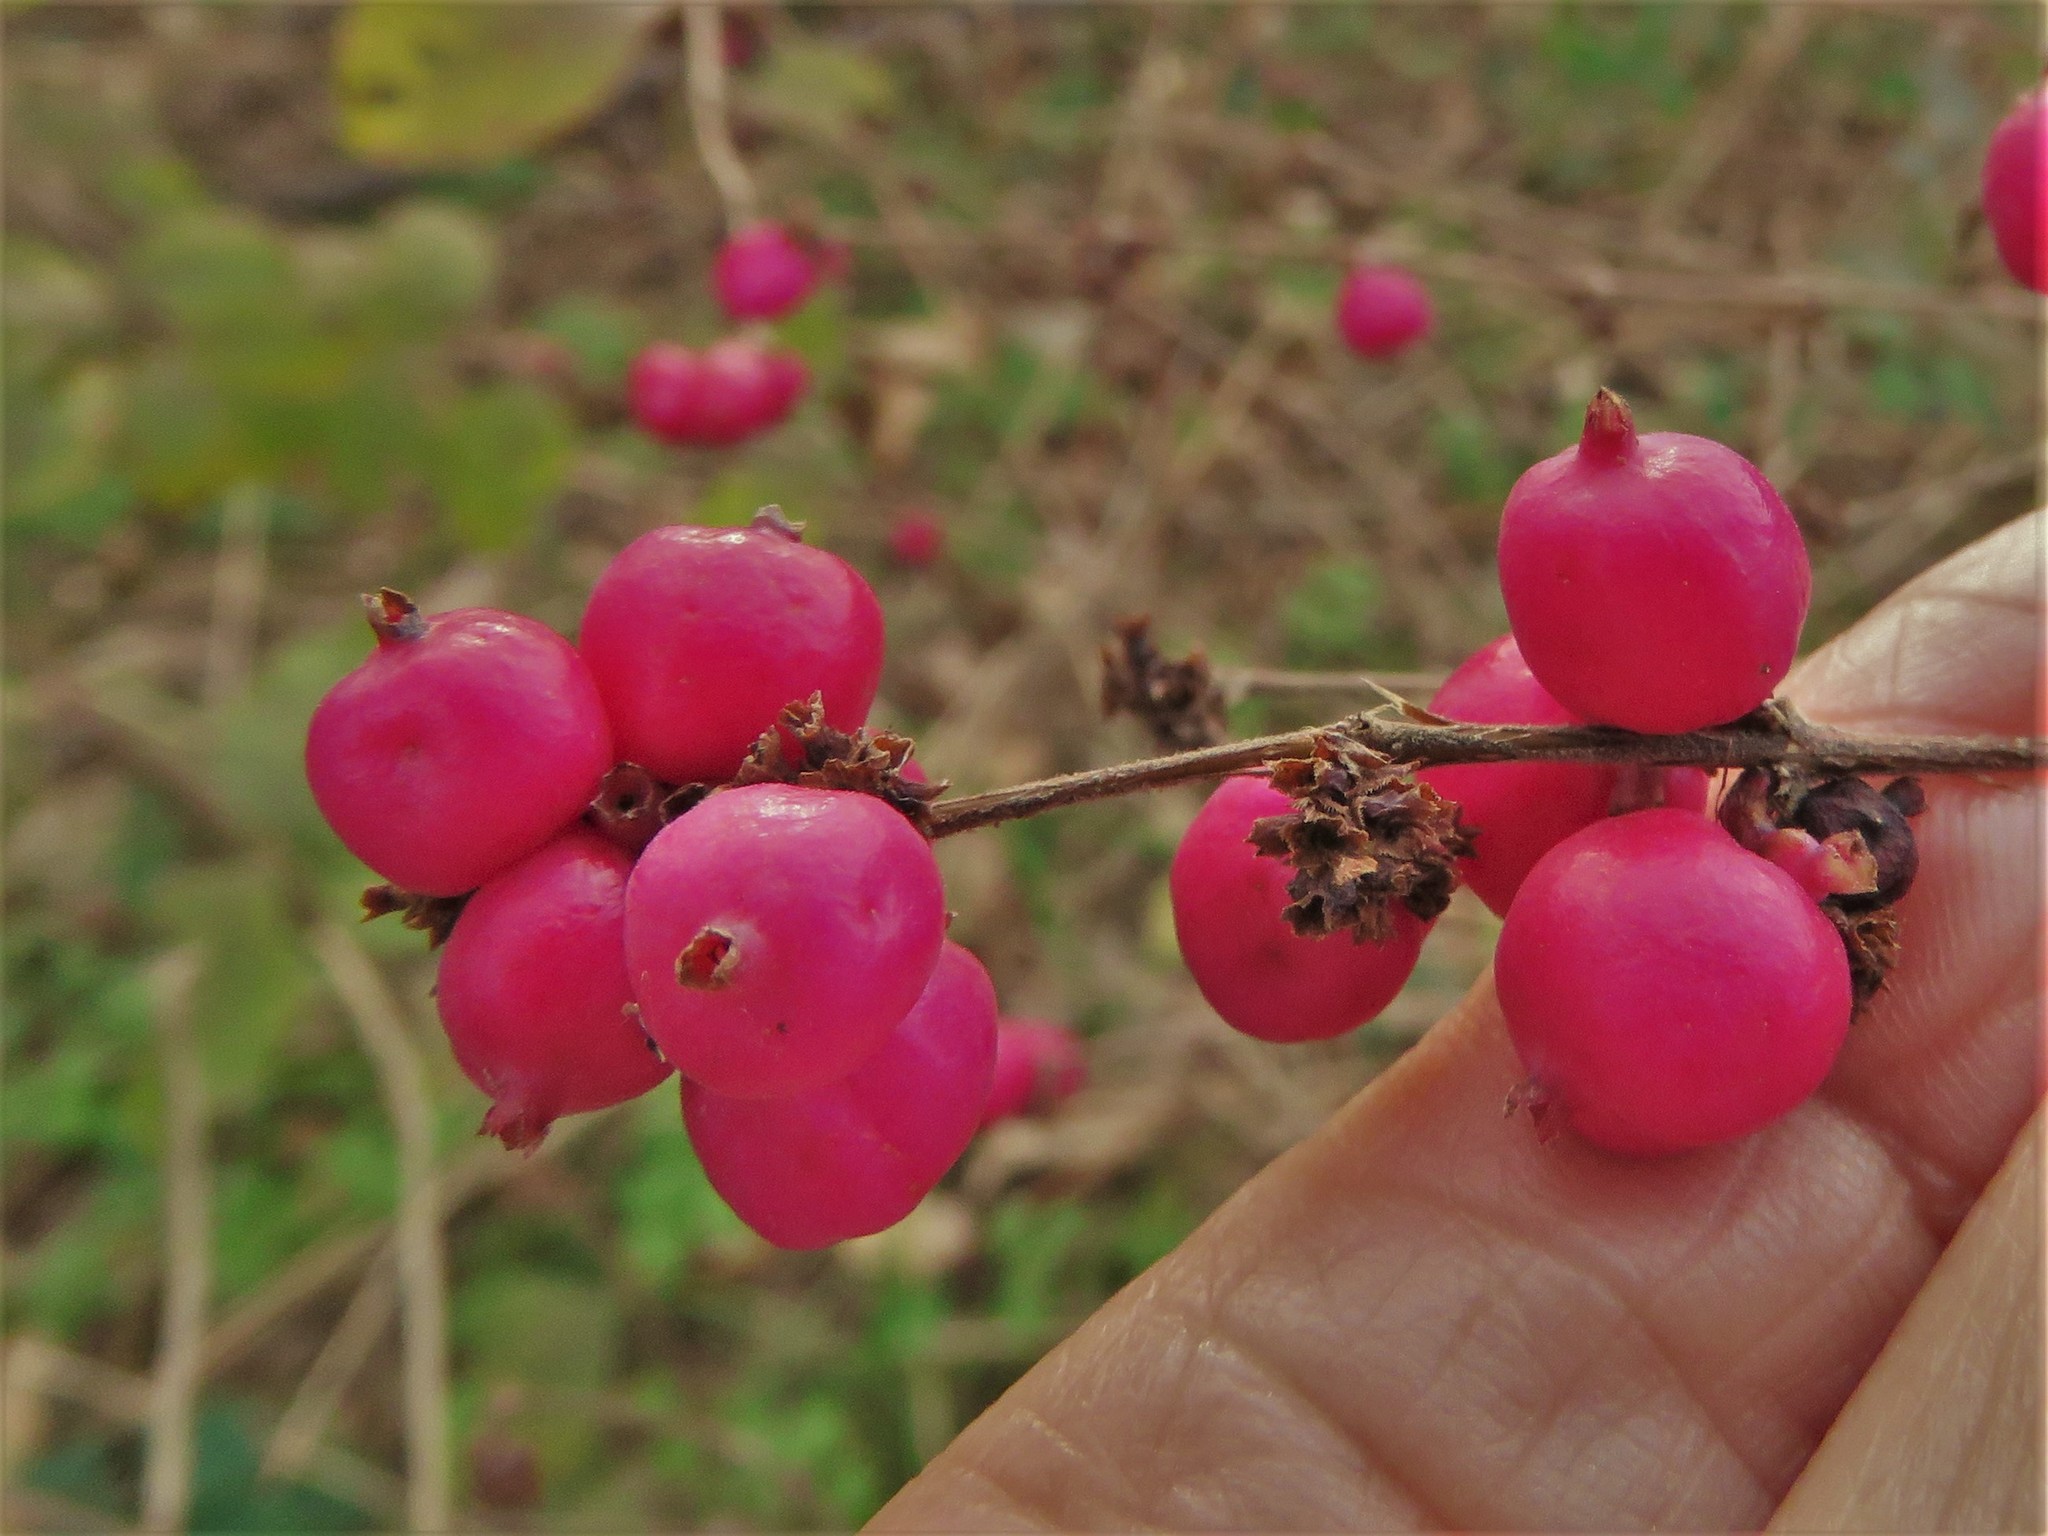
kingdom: Plantae
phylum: Tracheophyta
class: Magnoliopsida
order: Dipsacales
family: Caprifoliaceae
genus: Symphoricarpos
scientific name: Symphoricarpos orbiculatus
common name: Coralberry
